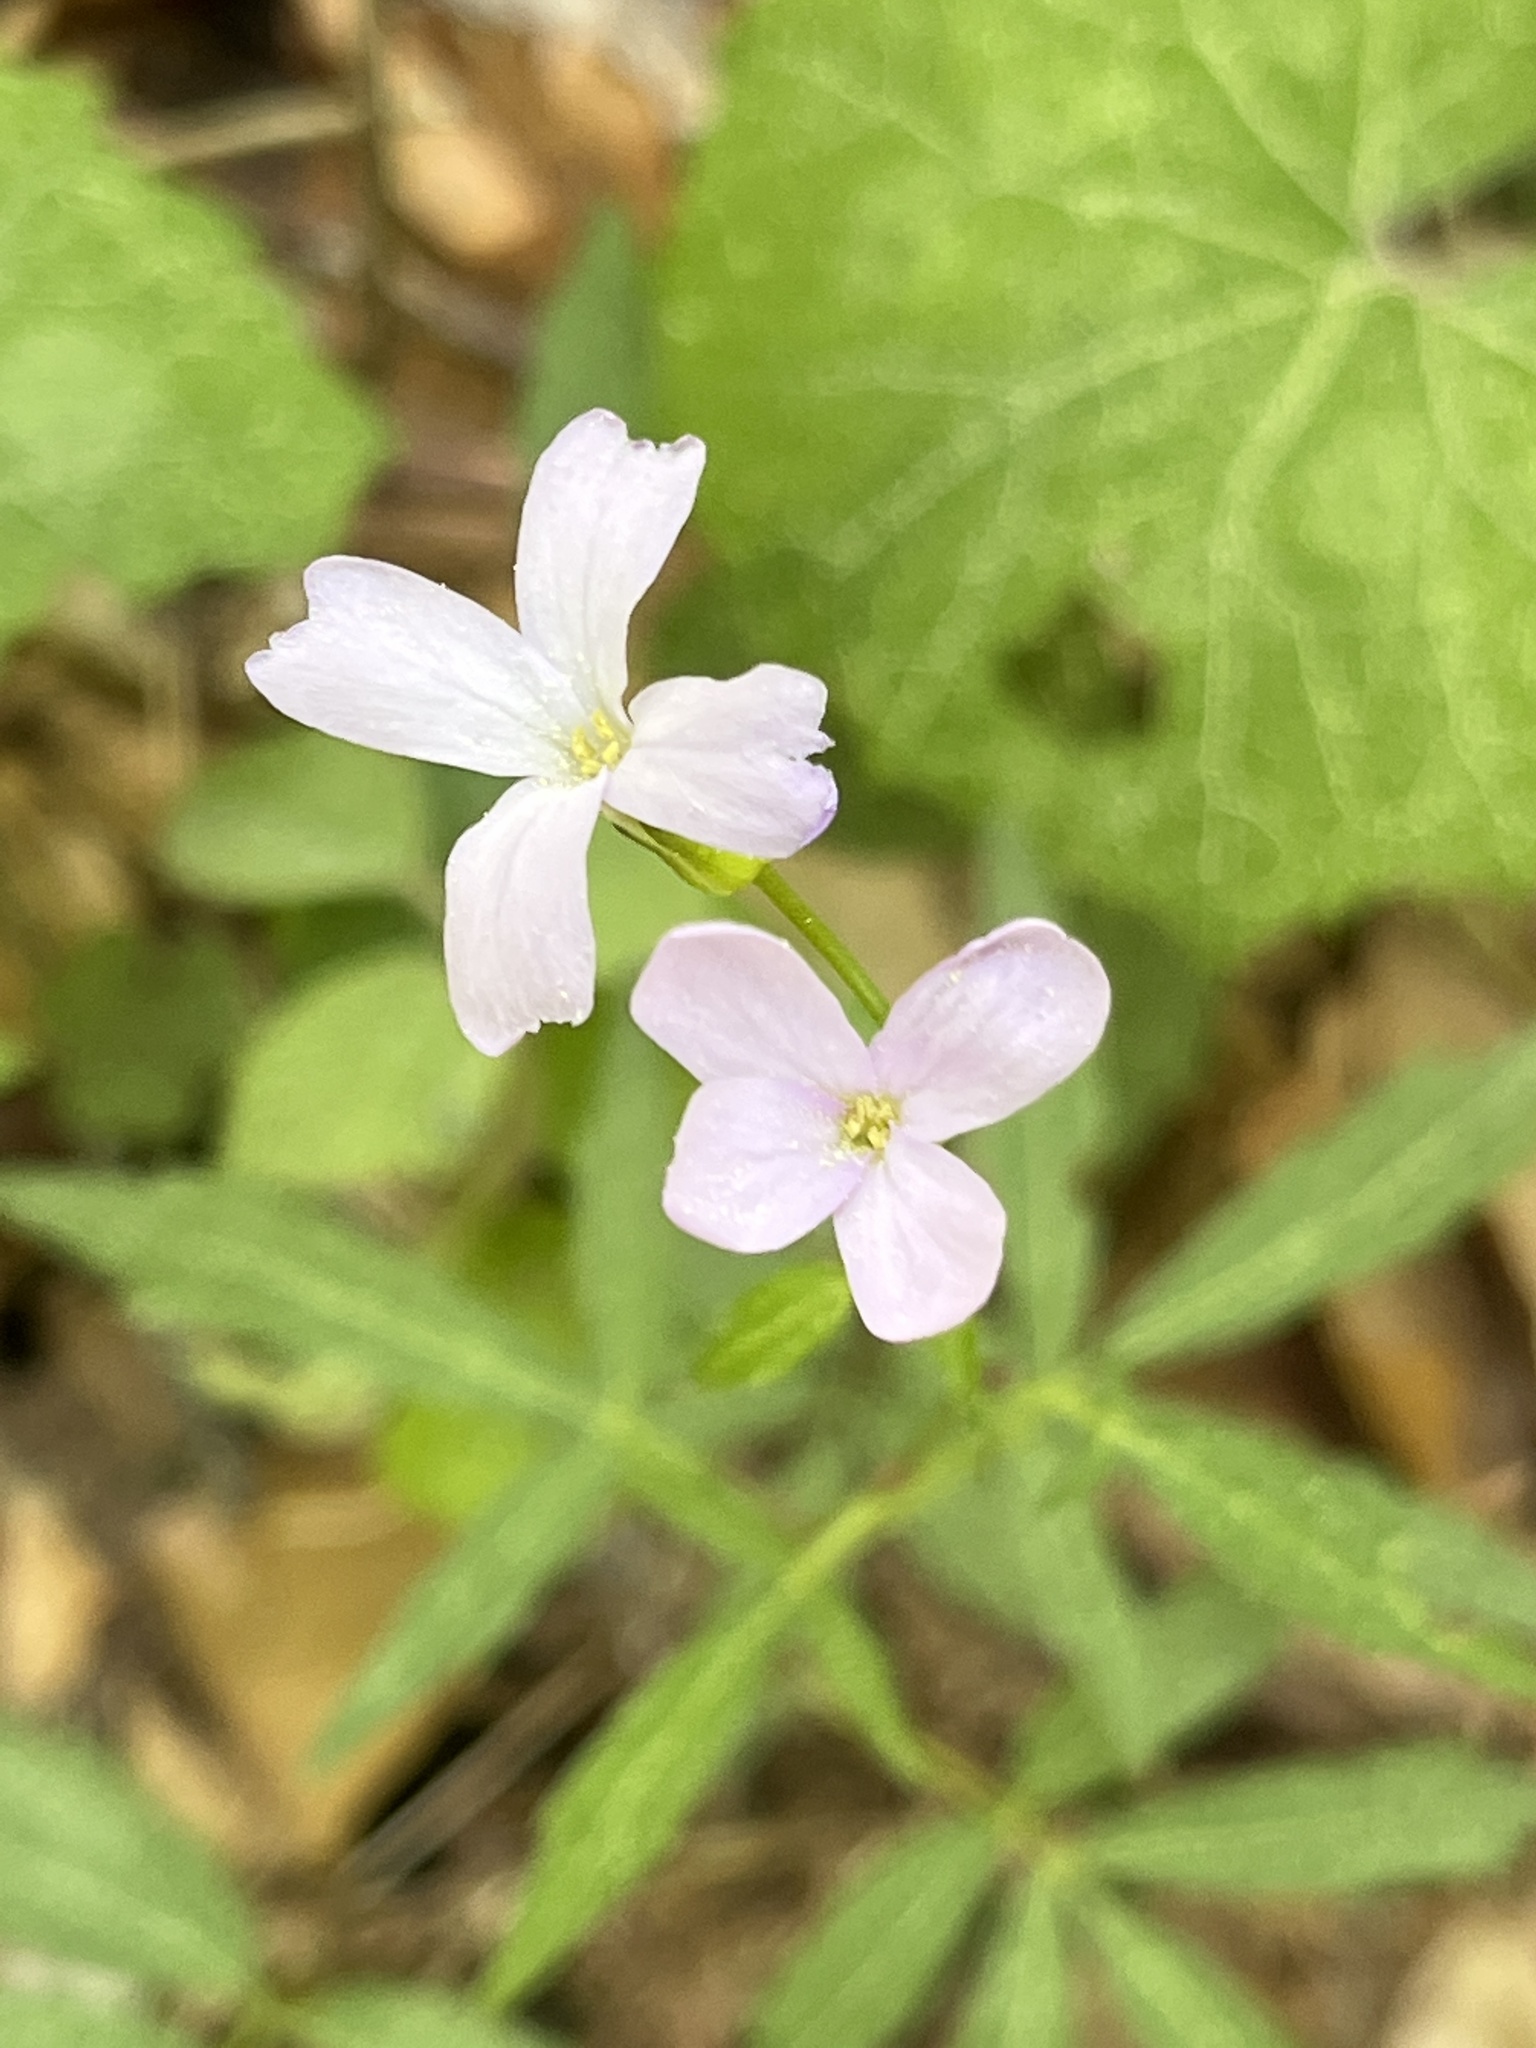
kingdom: Plantae
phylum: Tracheophyta
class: Magnoliopsida
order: Brassicales
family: Brassicaceae
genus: Cardamine
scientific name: Cardamine bulbifera
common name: Coralroot bittercress
